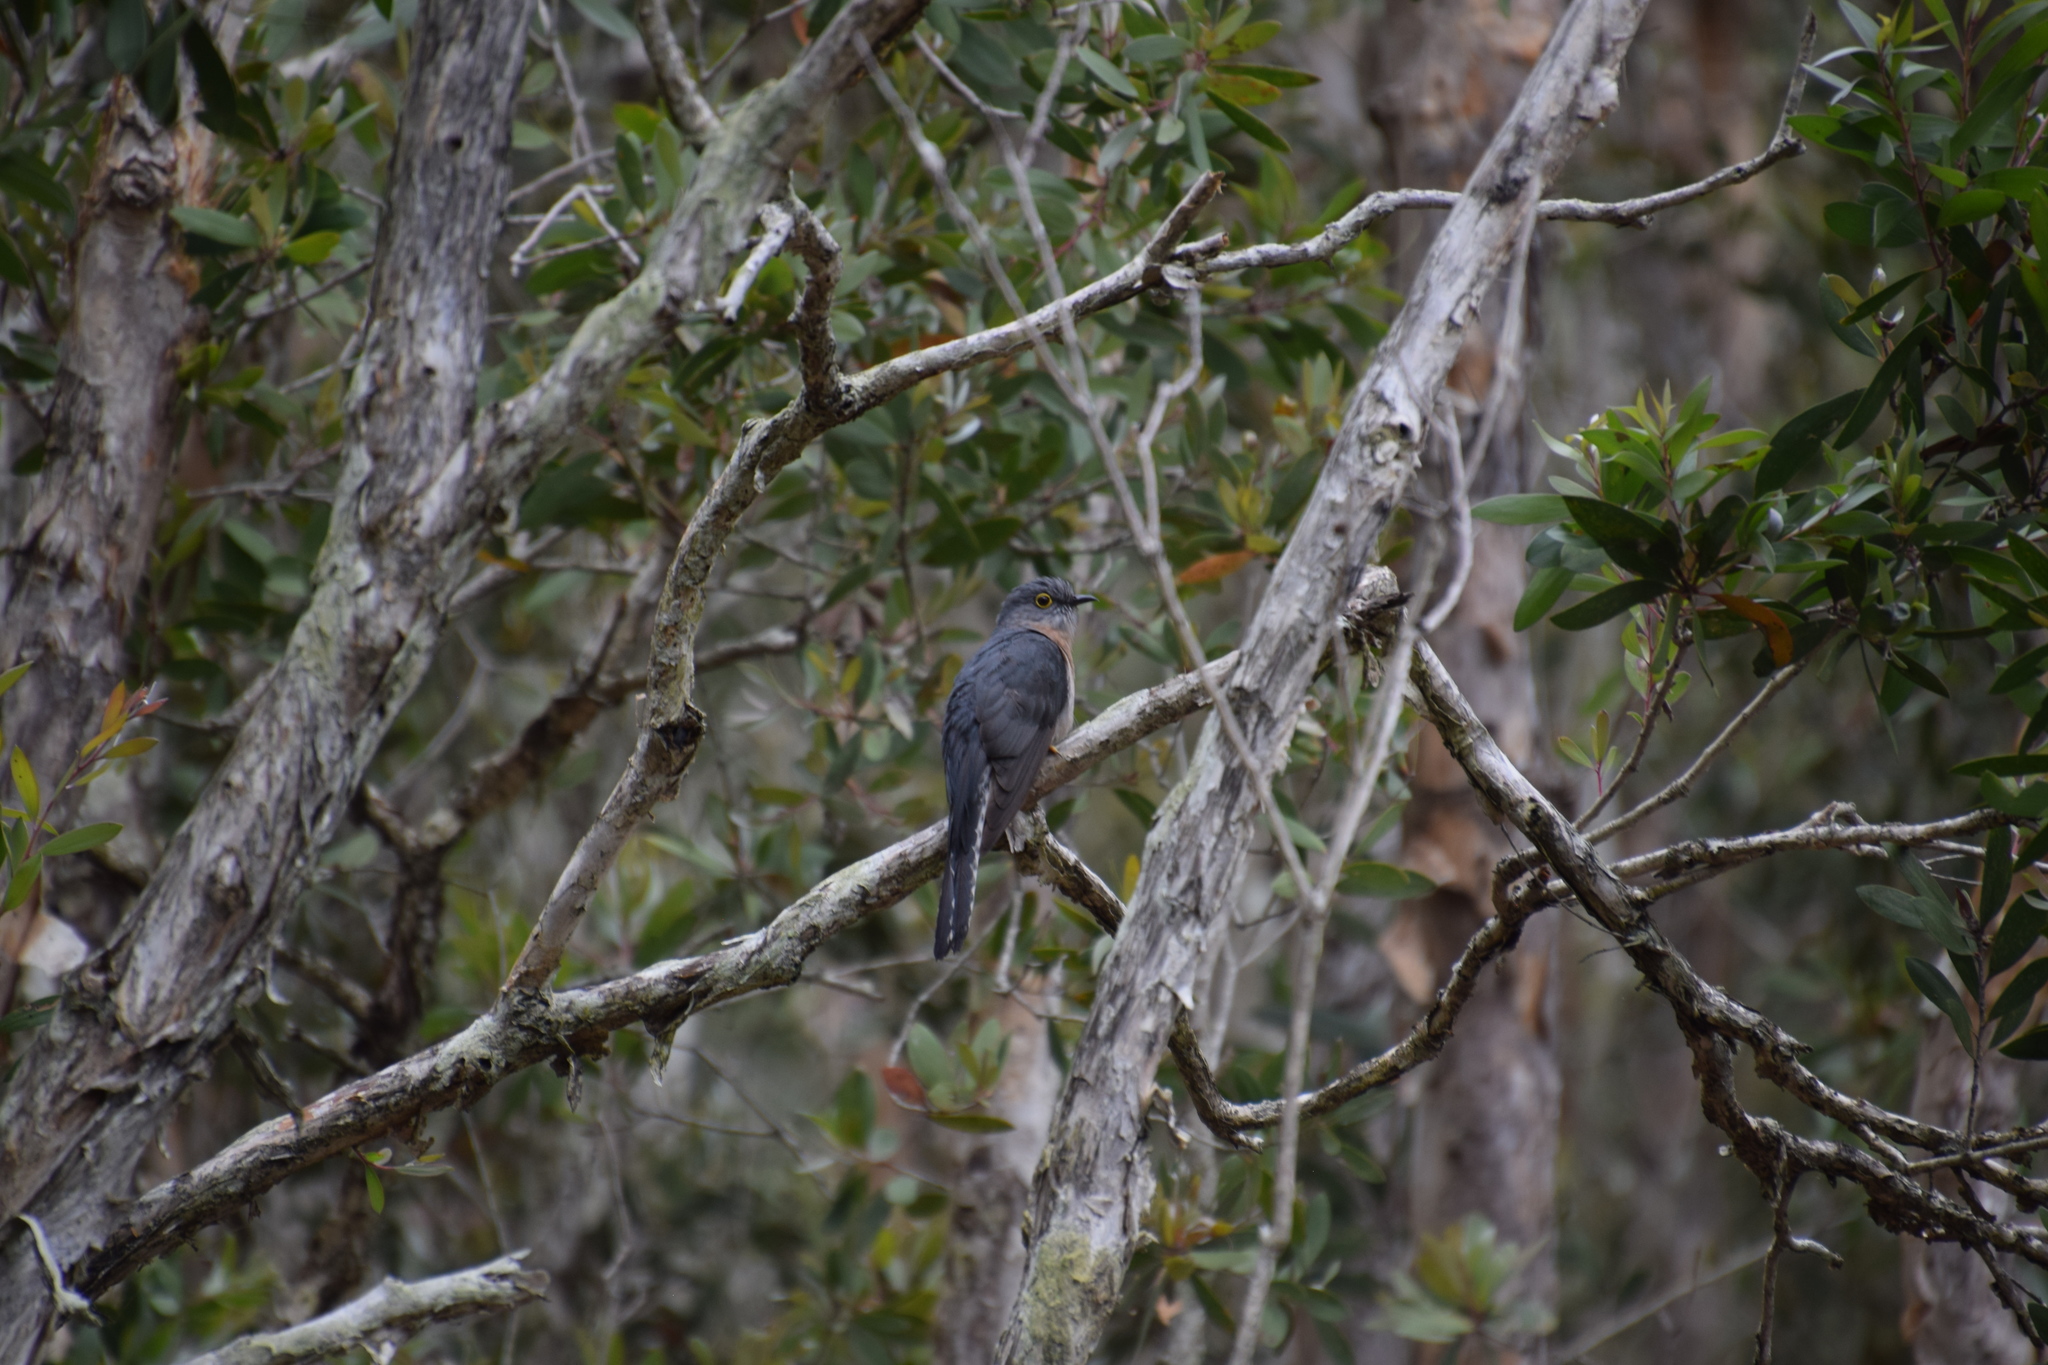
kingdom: Animalia
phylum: Chordata
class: Aves
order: Cuculiformes
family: Cuculidae
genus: Cacomantis
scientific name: Cacomantis flabelliformis
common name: Fan-tailed cuckoo
